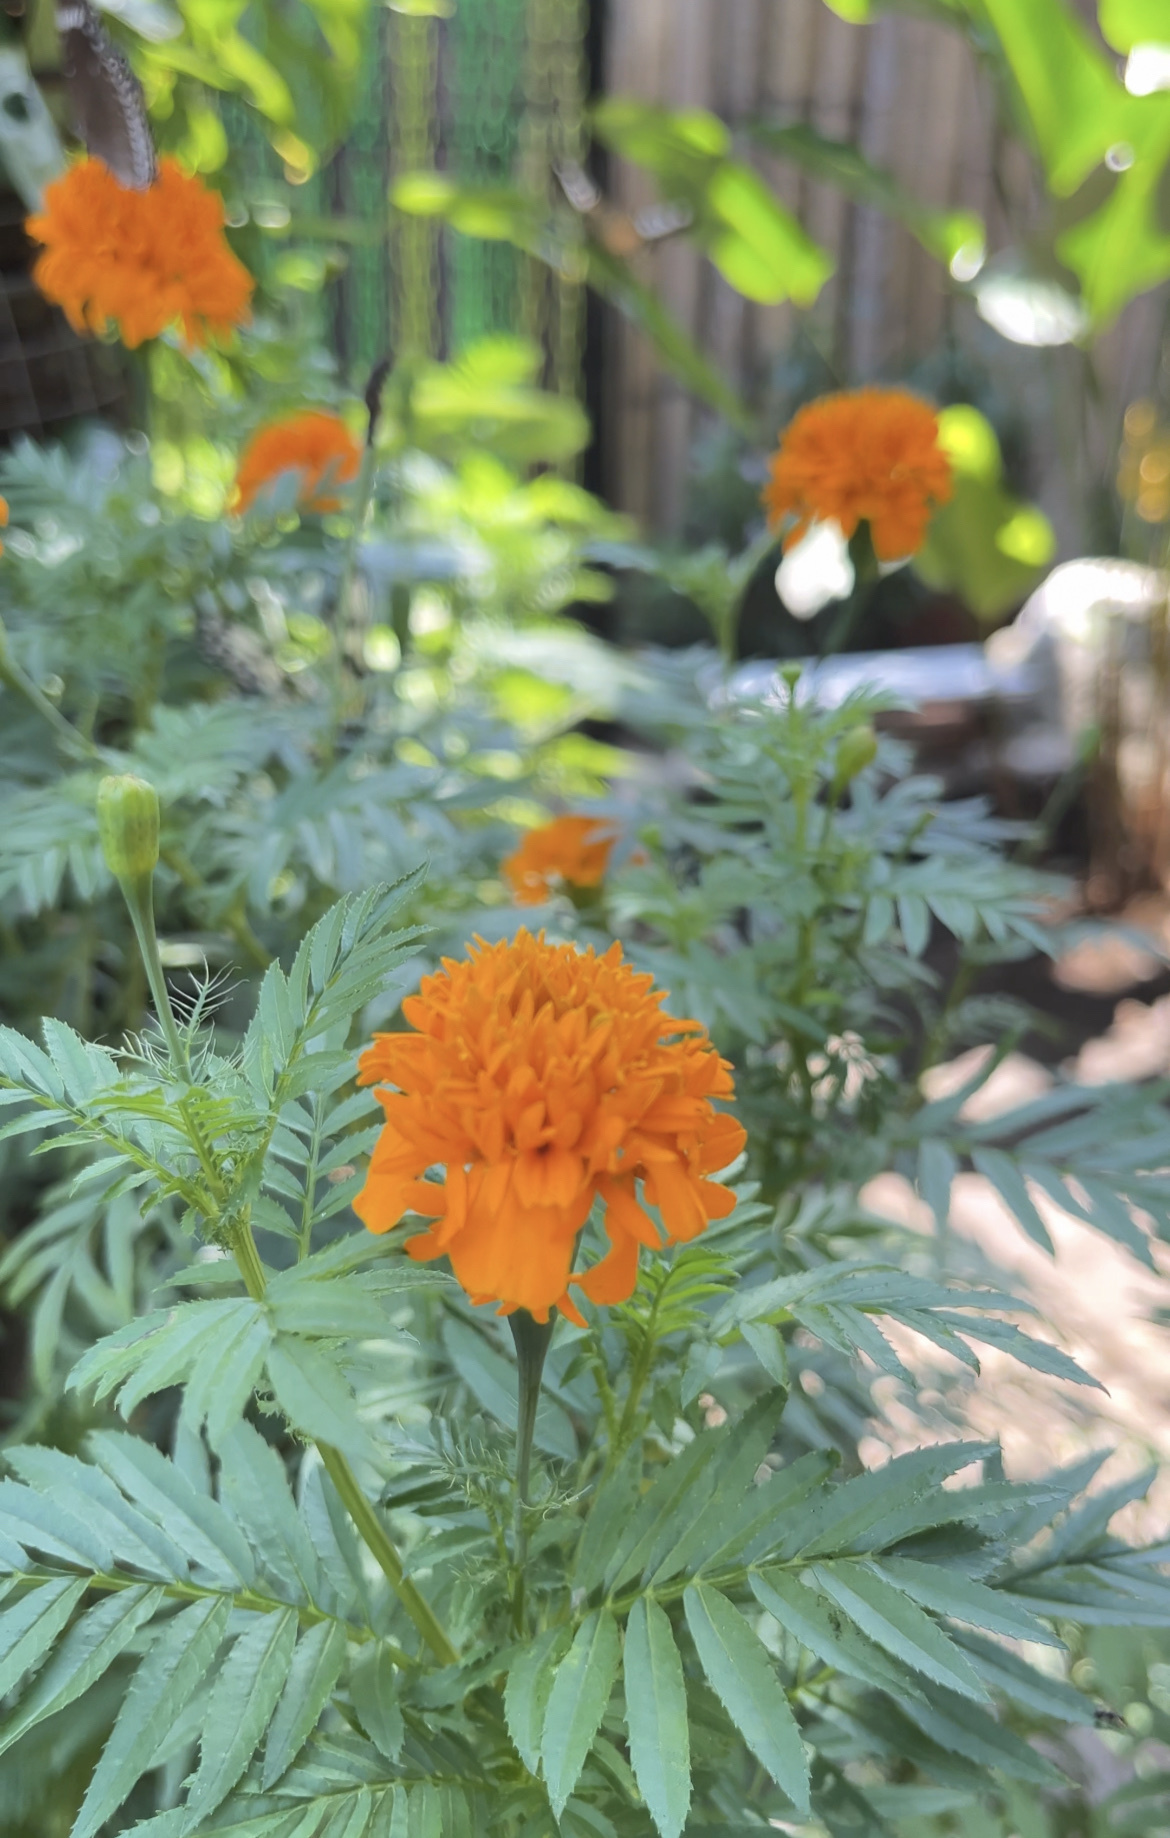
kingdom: Plantae
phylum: Tracheophyta
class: Magnoliopsida
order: Asterales
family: Asteraceae
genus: Tagetes
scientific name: Tagetes erecta
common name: African marigold
